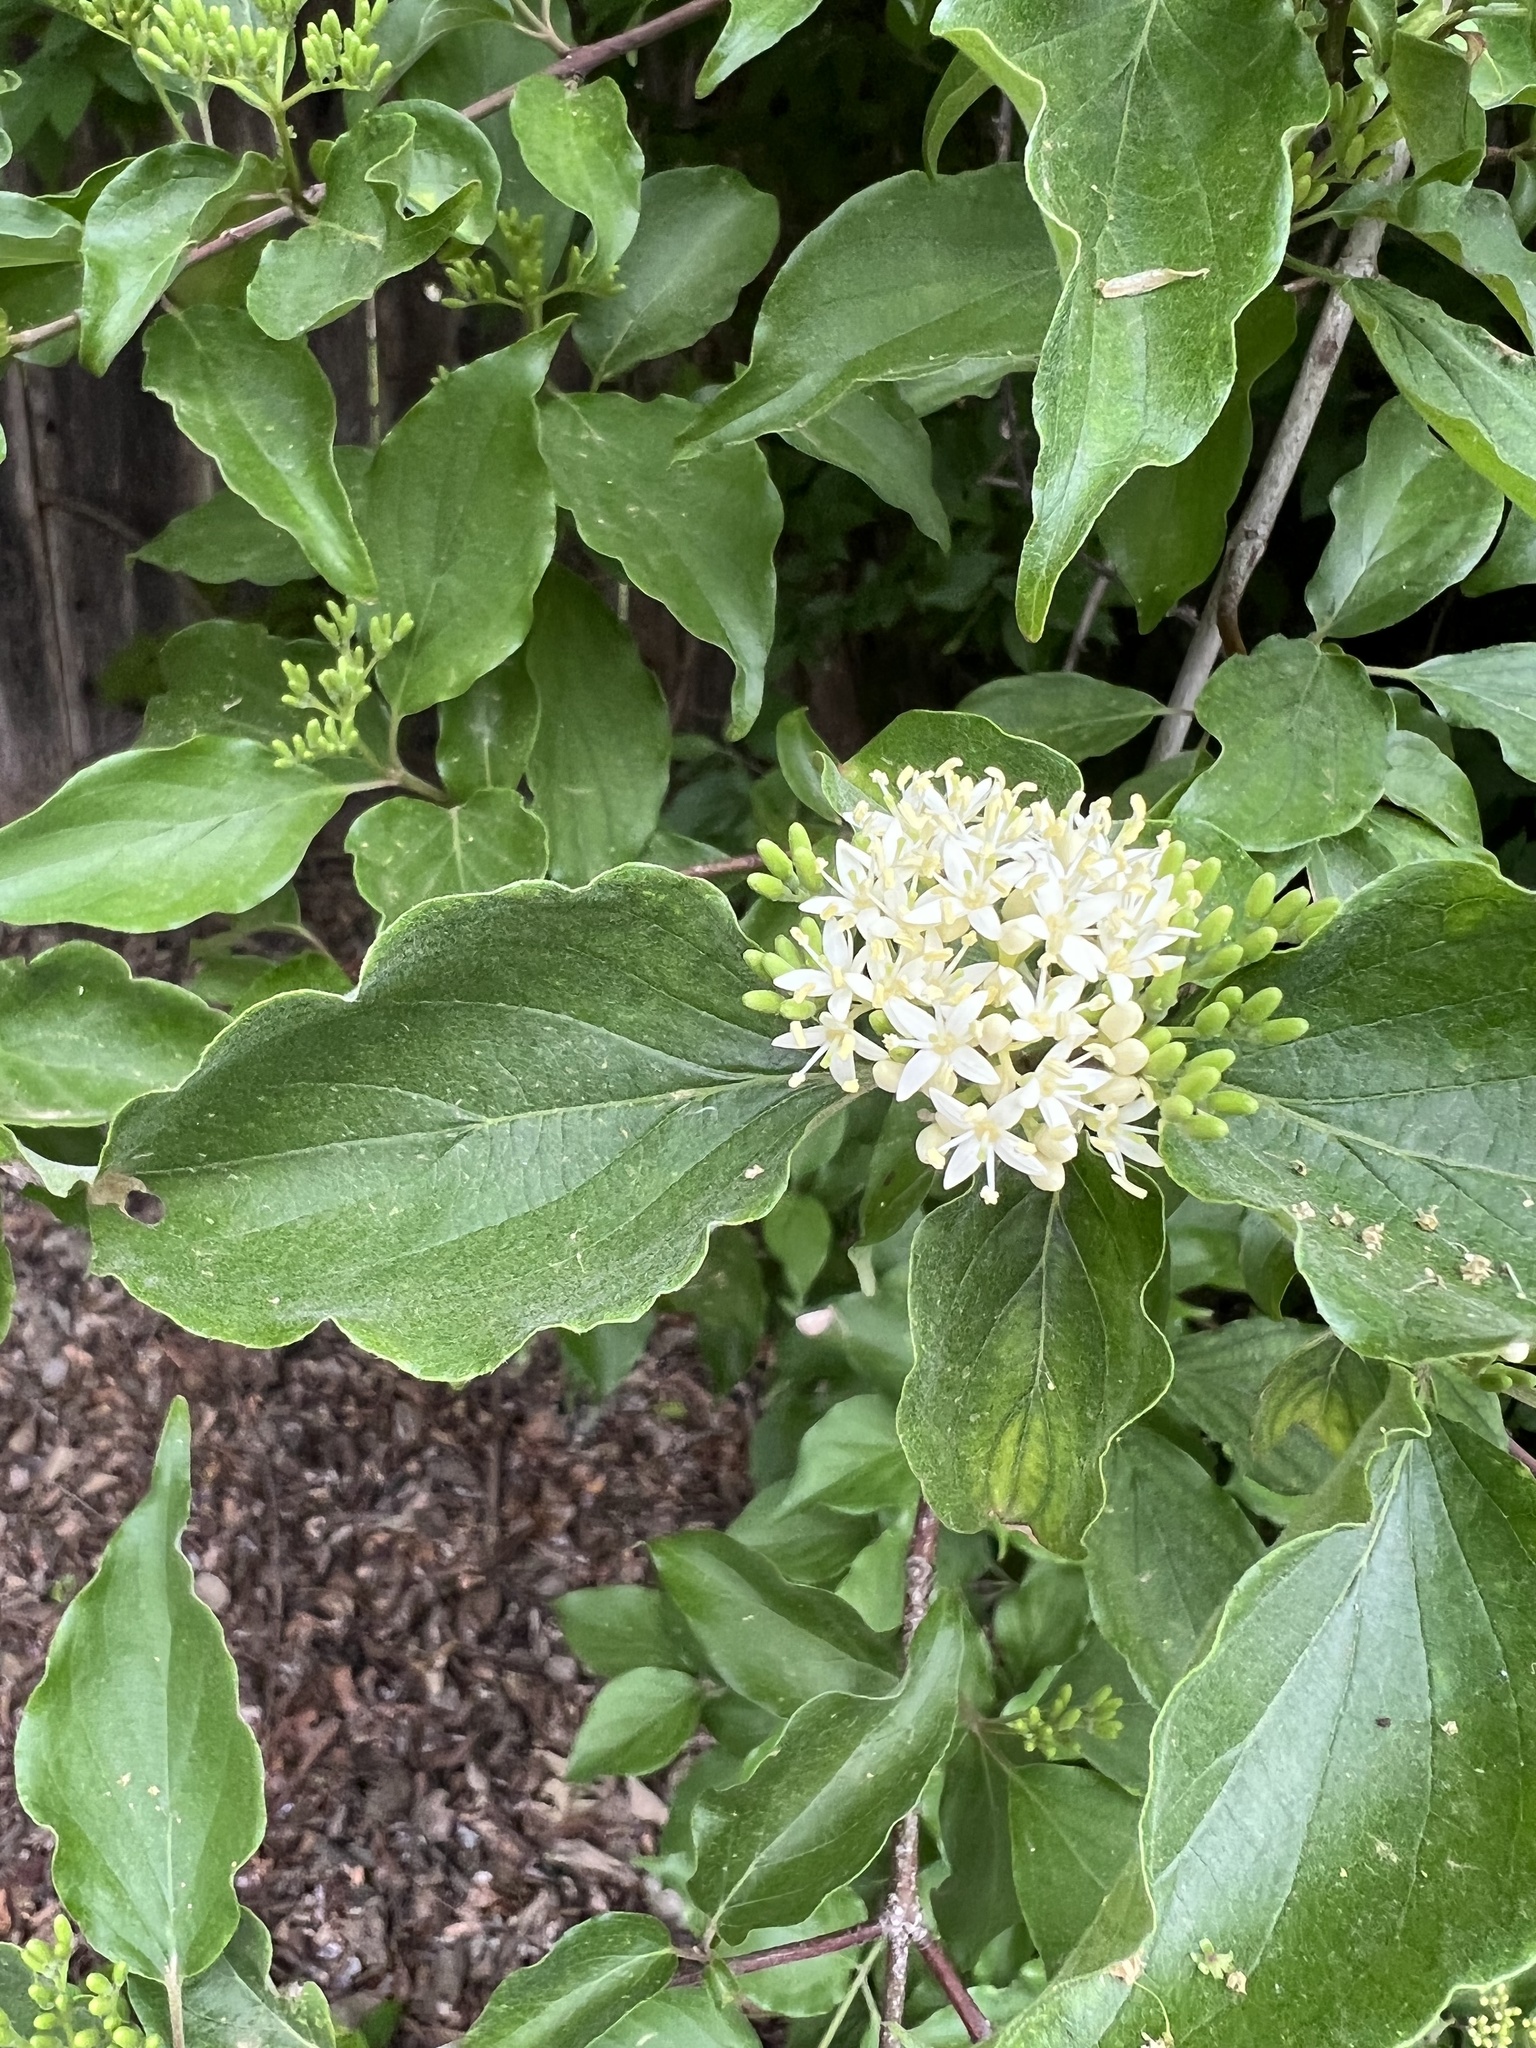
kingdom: Plantae
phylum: Tracheophyta
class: Magnoliopsida
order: Cornales
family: Cornaceae
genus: Cornus
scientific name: Cornus drummondii
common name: Rough-leaf dogwood
